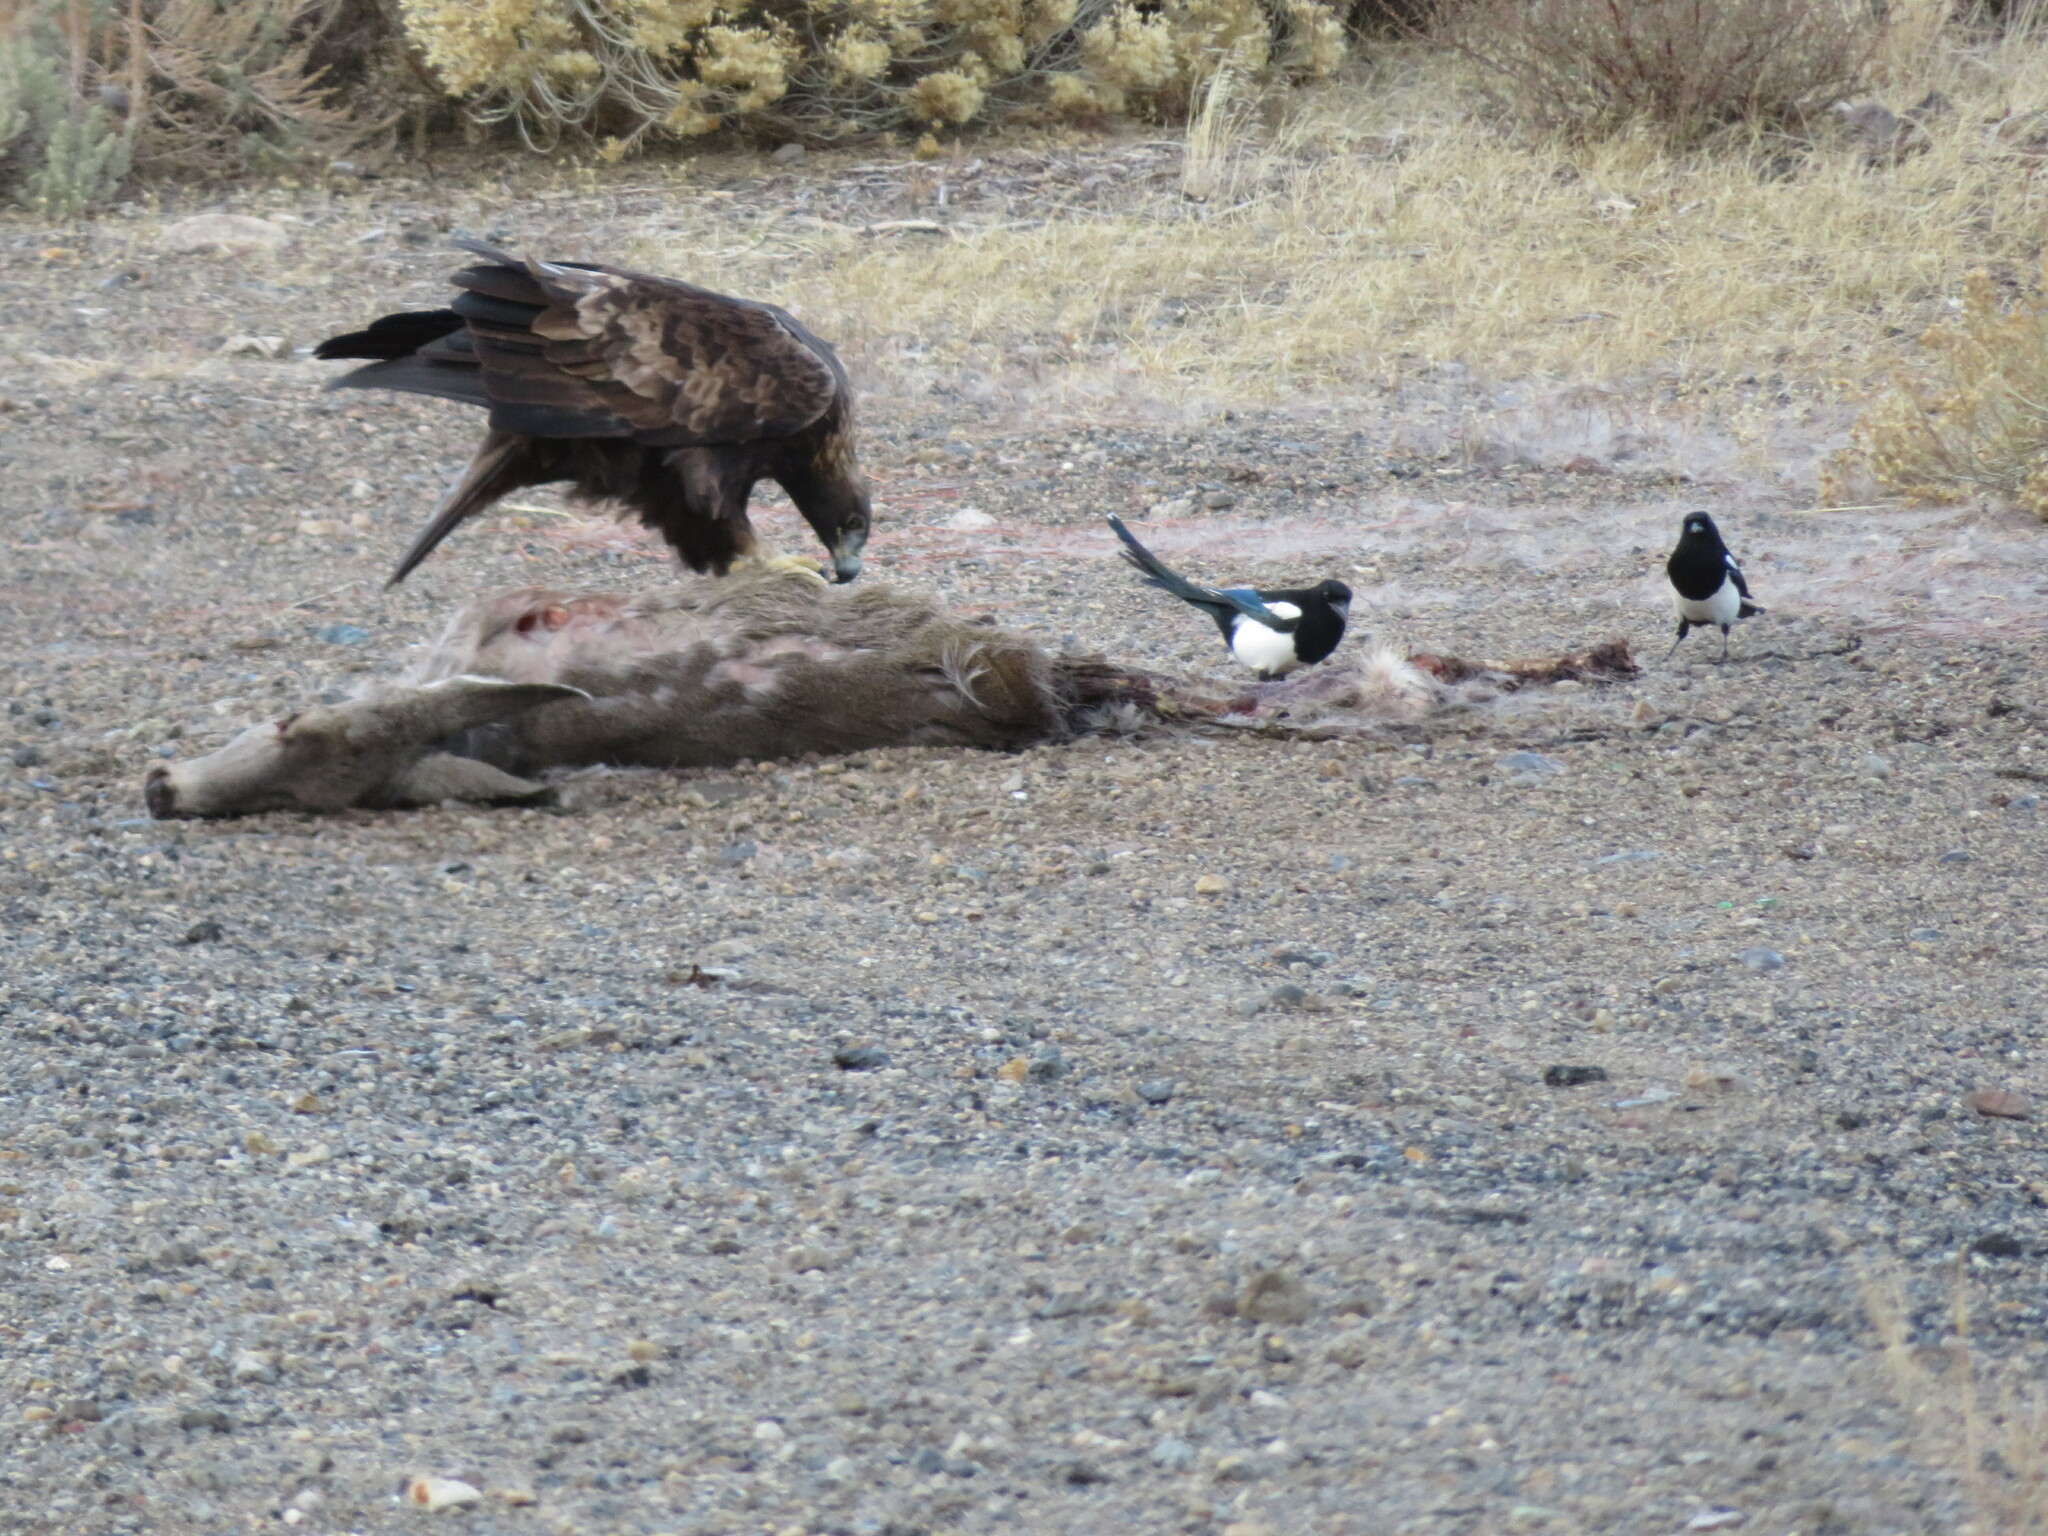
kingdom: Animalia
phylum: Chordata
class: Aves
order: Accipitriformes
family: Accipitridae
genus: Aquila
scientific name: Aquila chrysaetos
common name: Golden eagle
